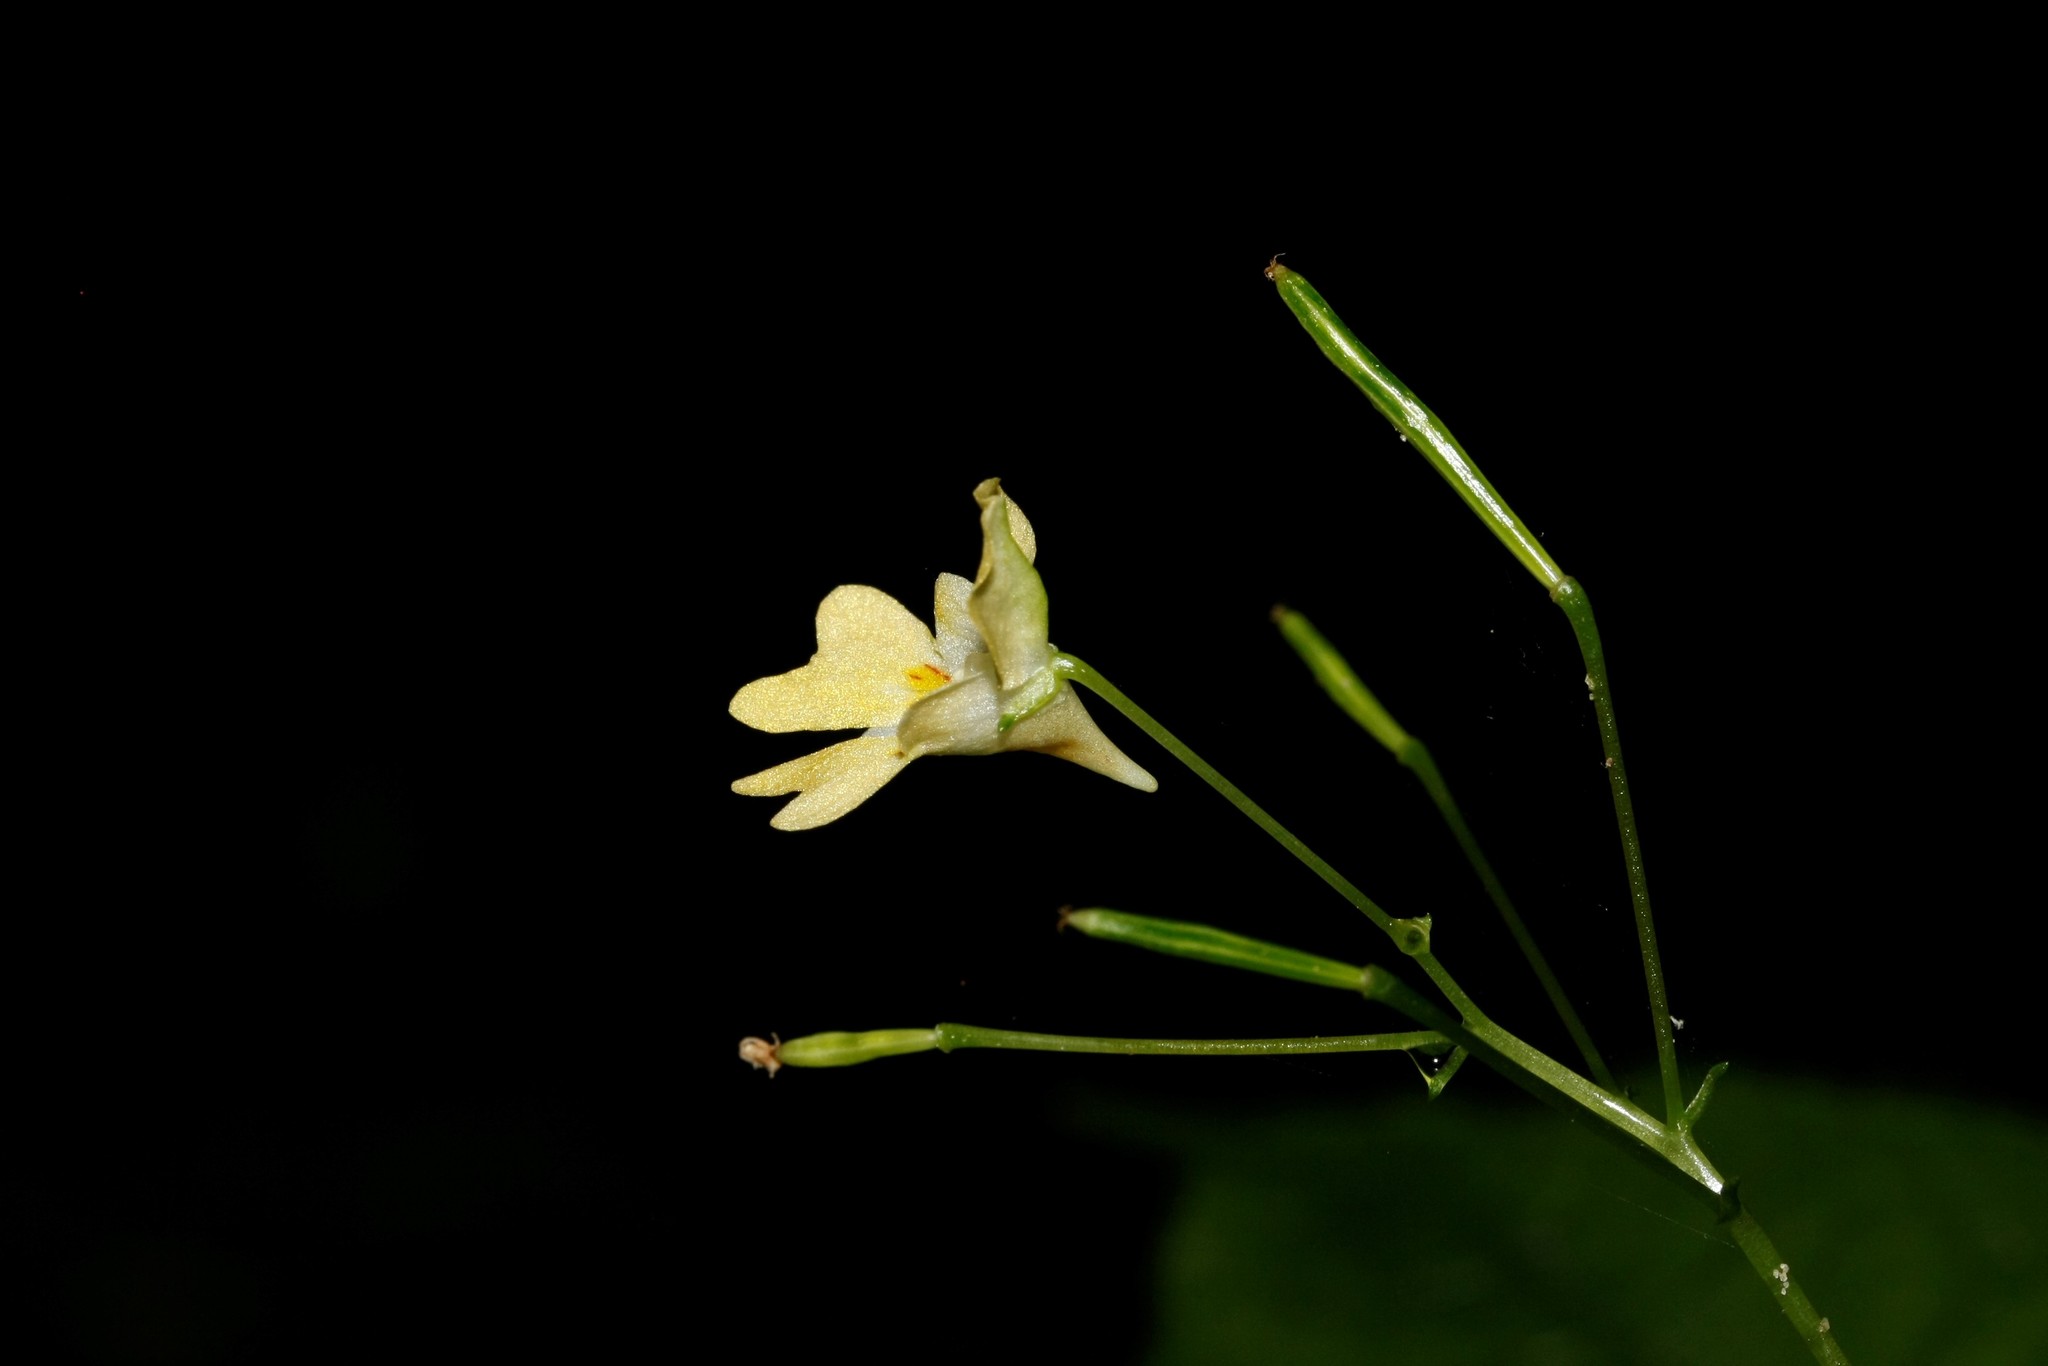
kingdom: Plantae
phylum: Tracheophyta
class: Magnoliopsida
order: Ericales
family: Balsaminaceae
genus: Impatiens
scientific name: Impatiens parviflora
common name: Small balsam
